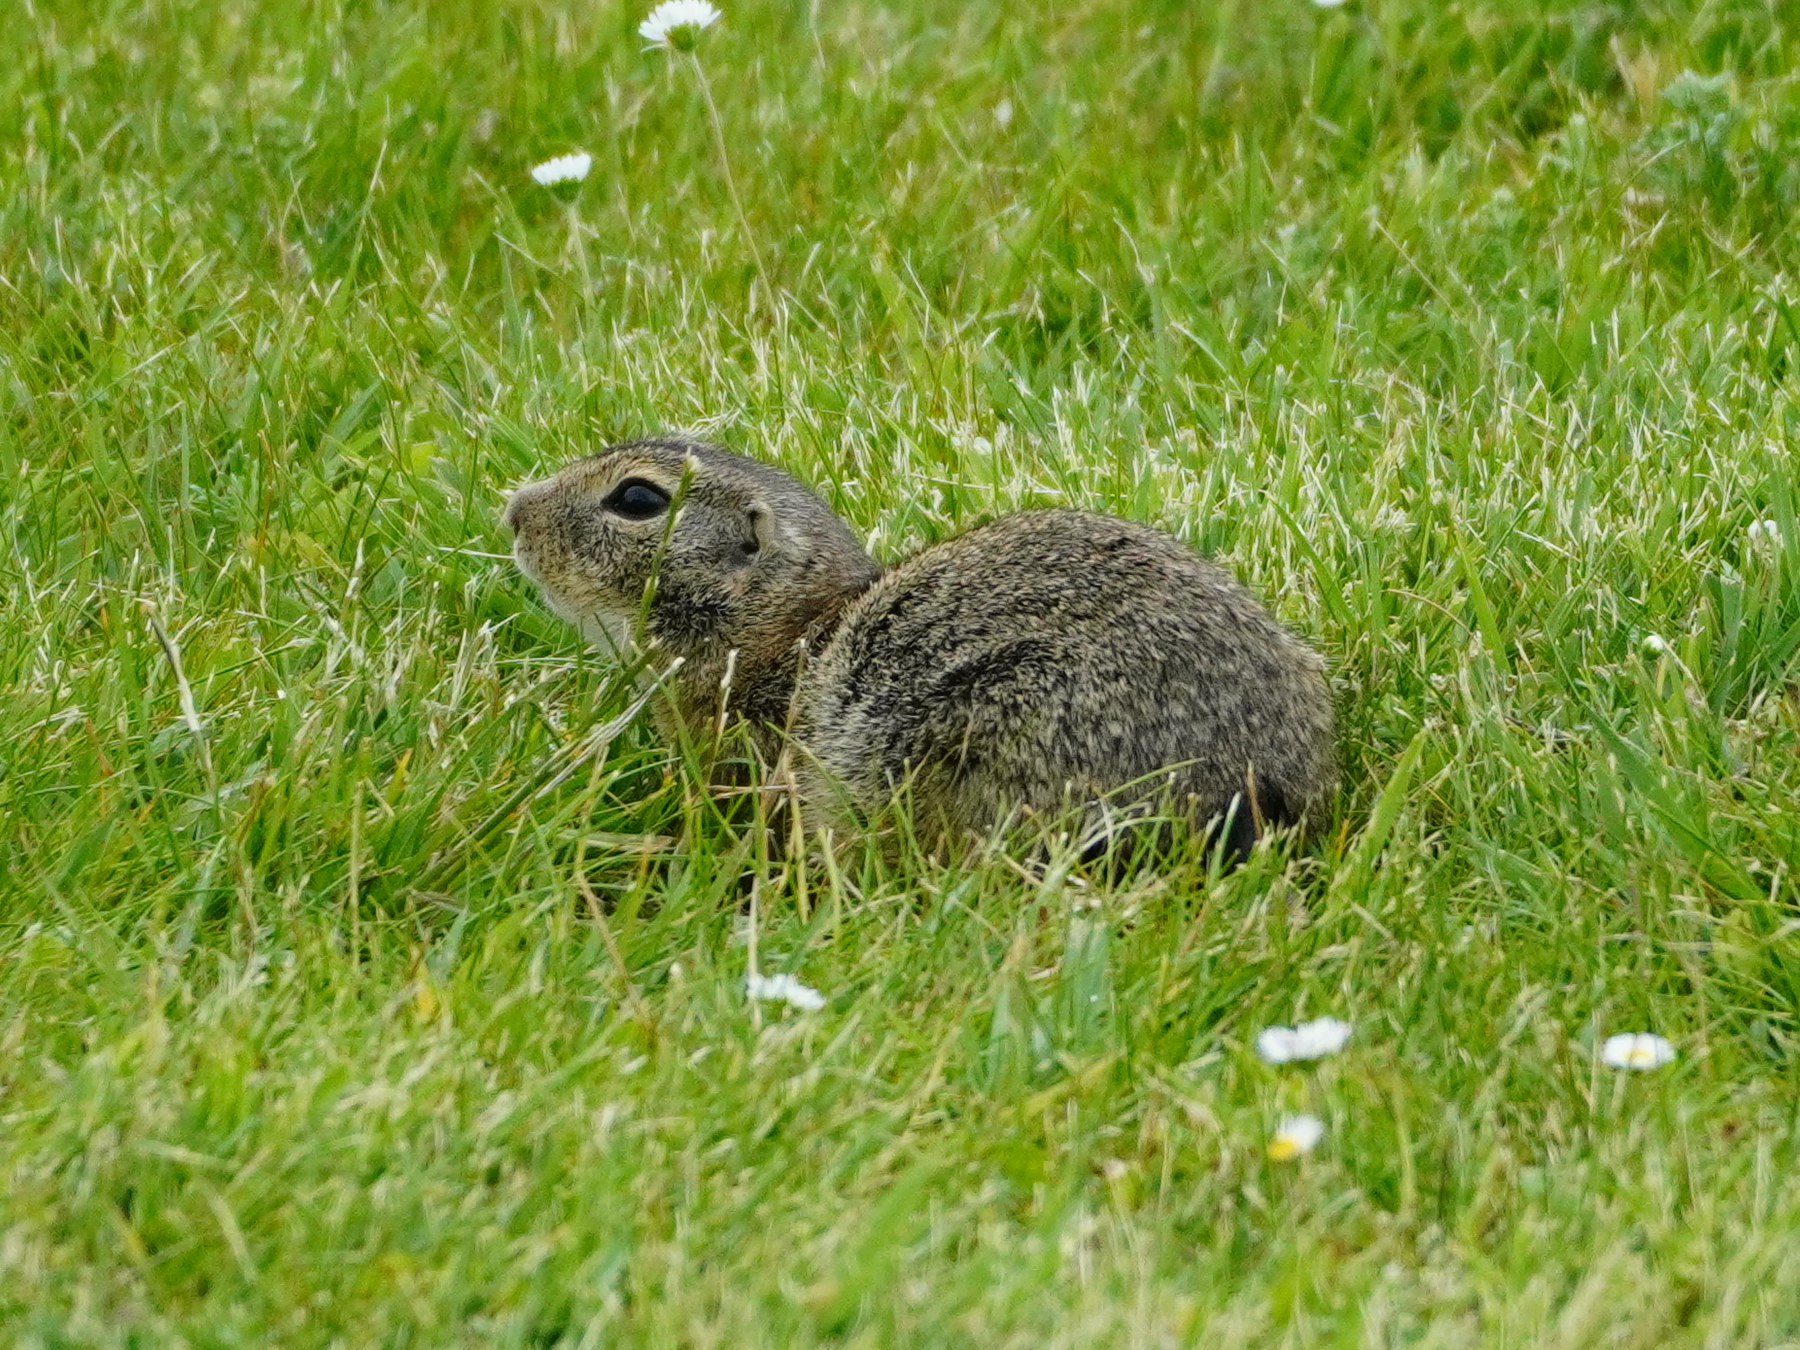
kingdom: Animalia
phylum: Chordata
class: Mammalia
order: Rodentia
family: Sciuridae
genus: Spermophilus
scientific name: Spermophilus citellus
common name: European ground squirrel
